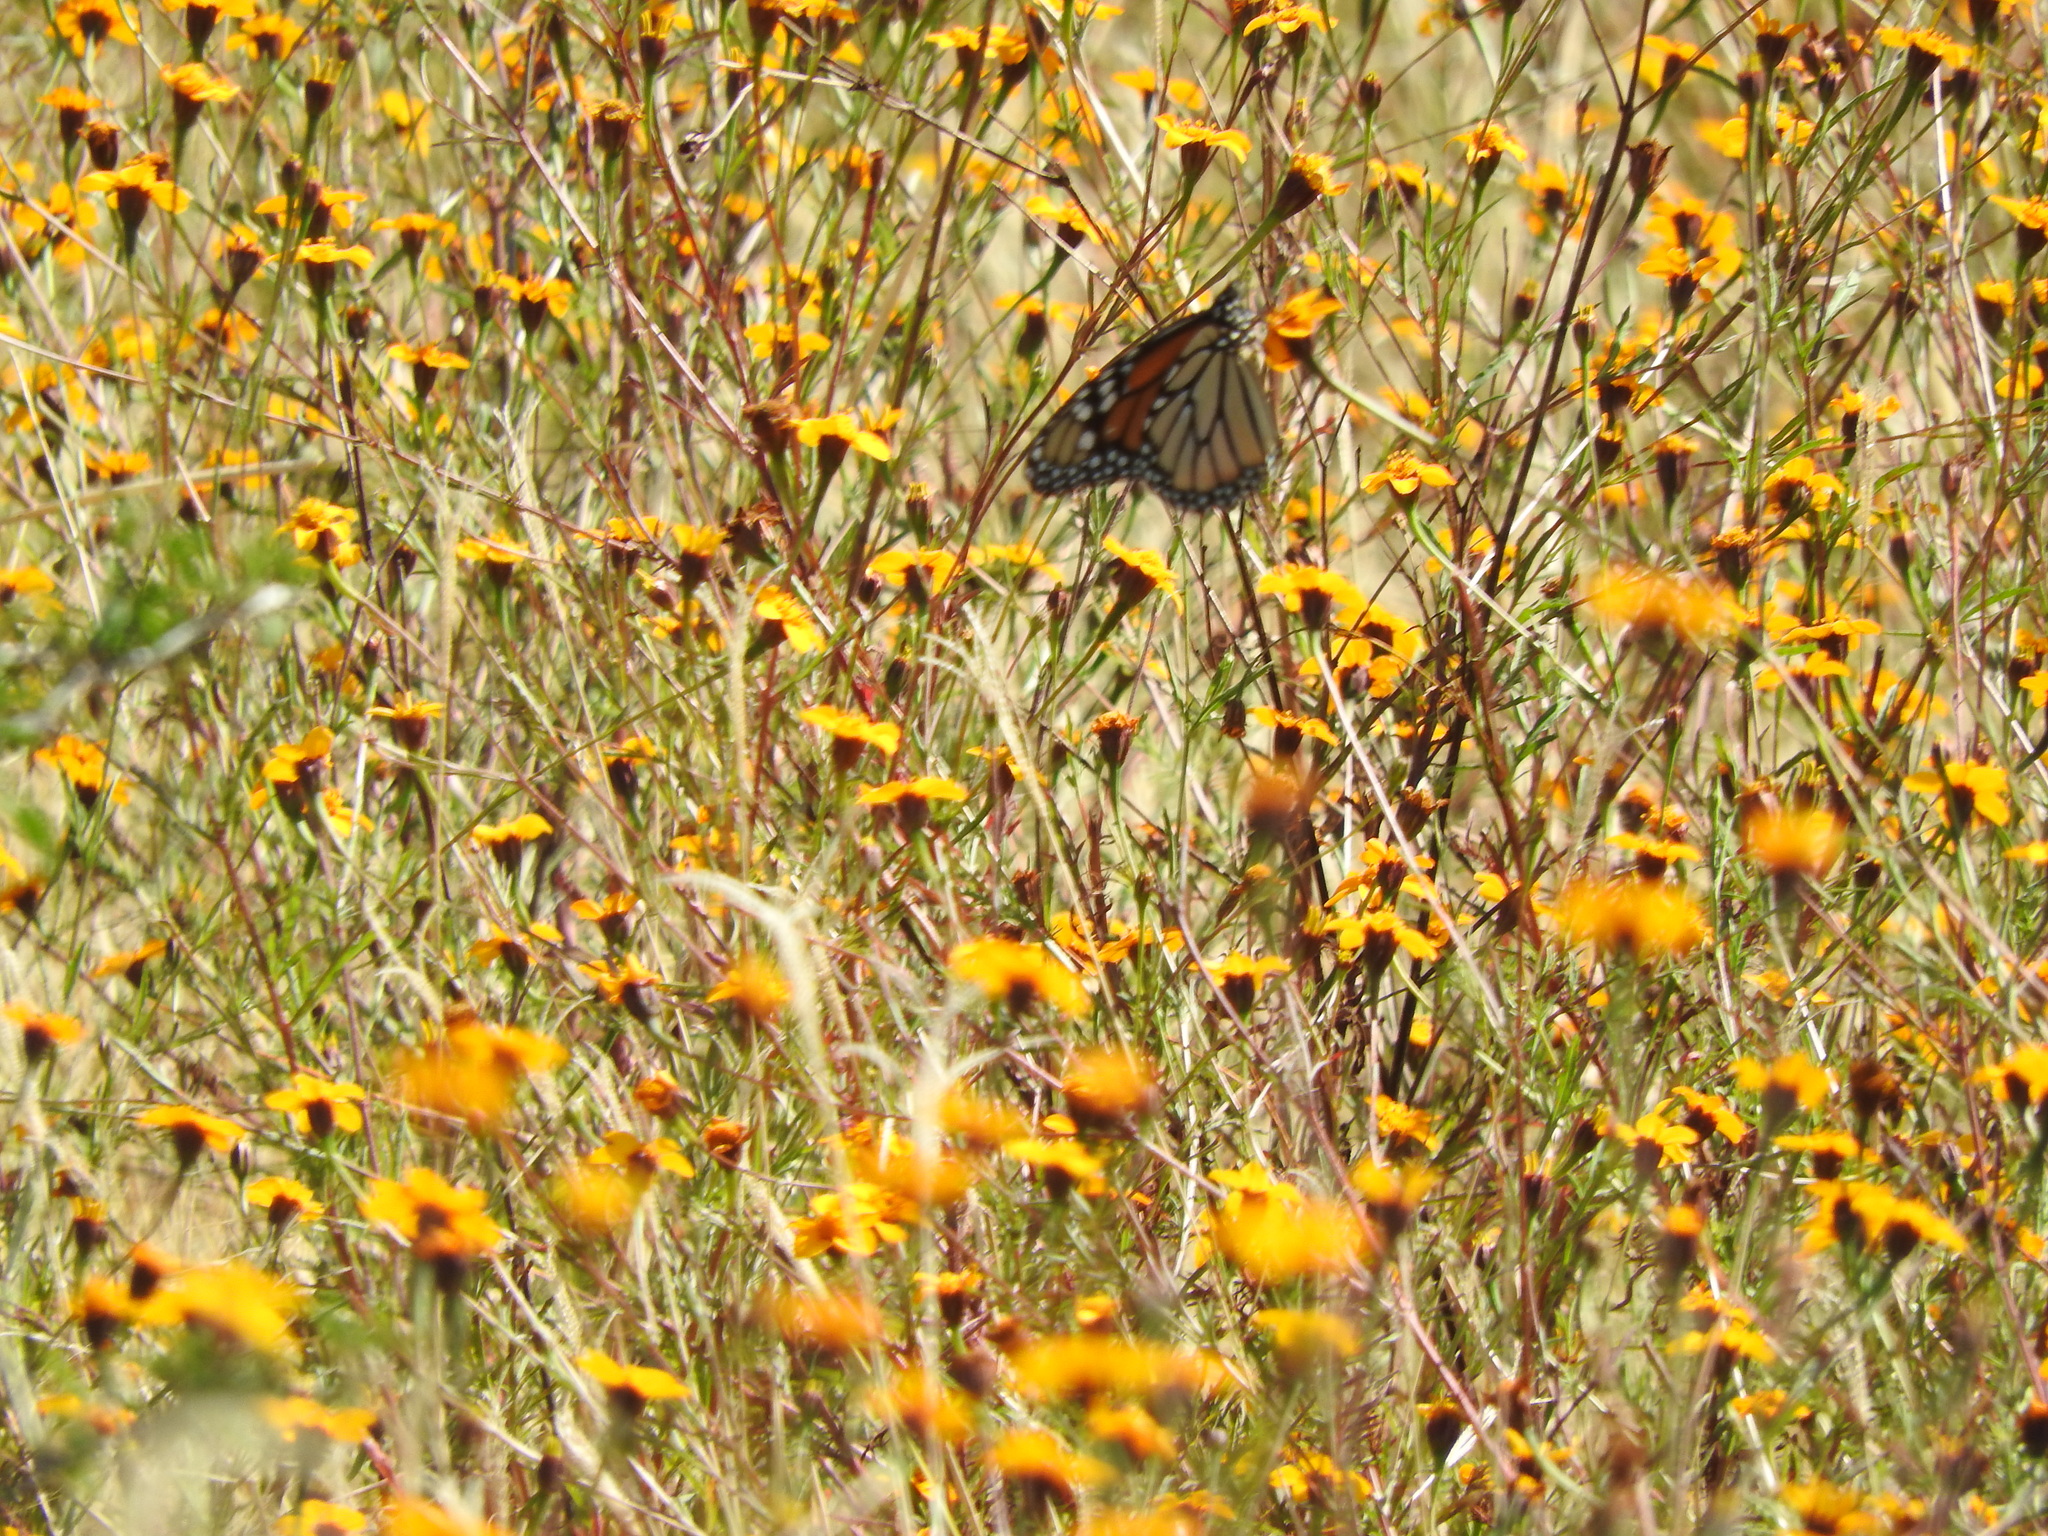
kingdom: Animalia
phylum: Arthropoda
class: Insecta
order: Lepidoptera
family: Nymphalidae
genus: Danaus
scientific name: Danaus plexippus
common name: Monarch
